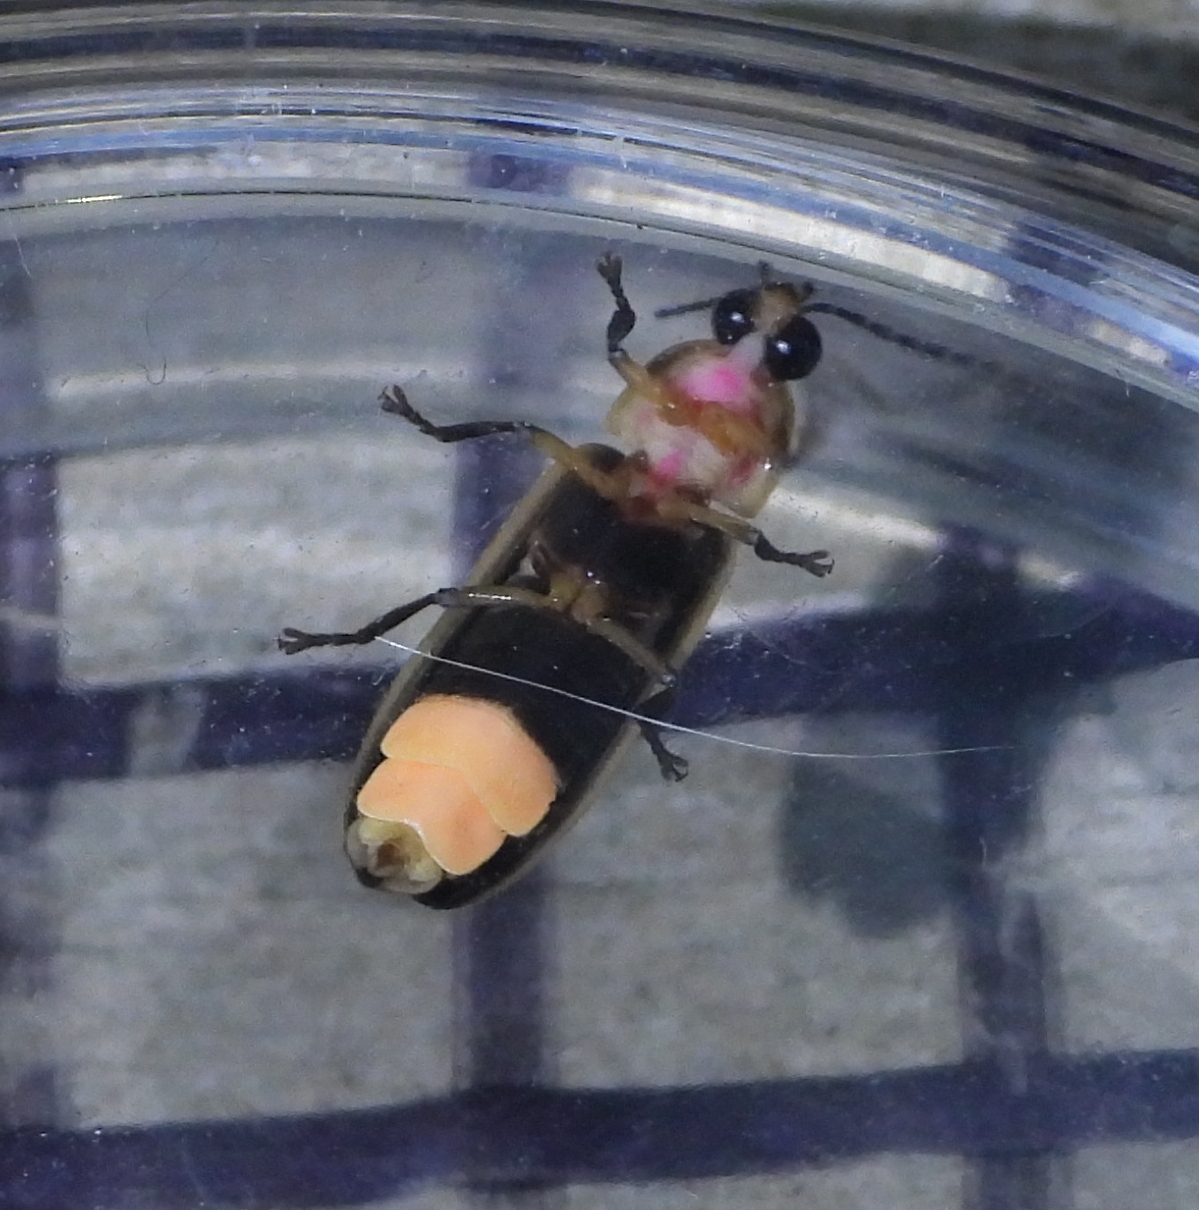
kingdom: Animalia
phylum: Arthropoda
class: Insecta
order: Coleoptera
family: Lampyridae
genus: Photinus
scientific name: Photinus pyralis
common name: Big dipper firefly
